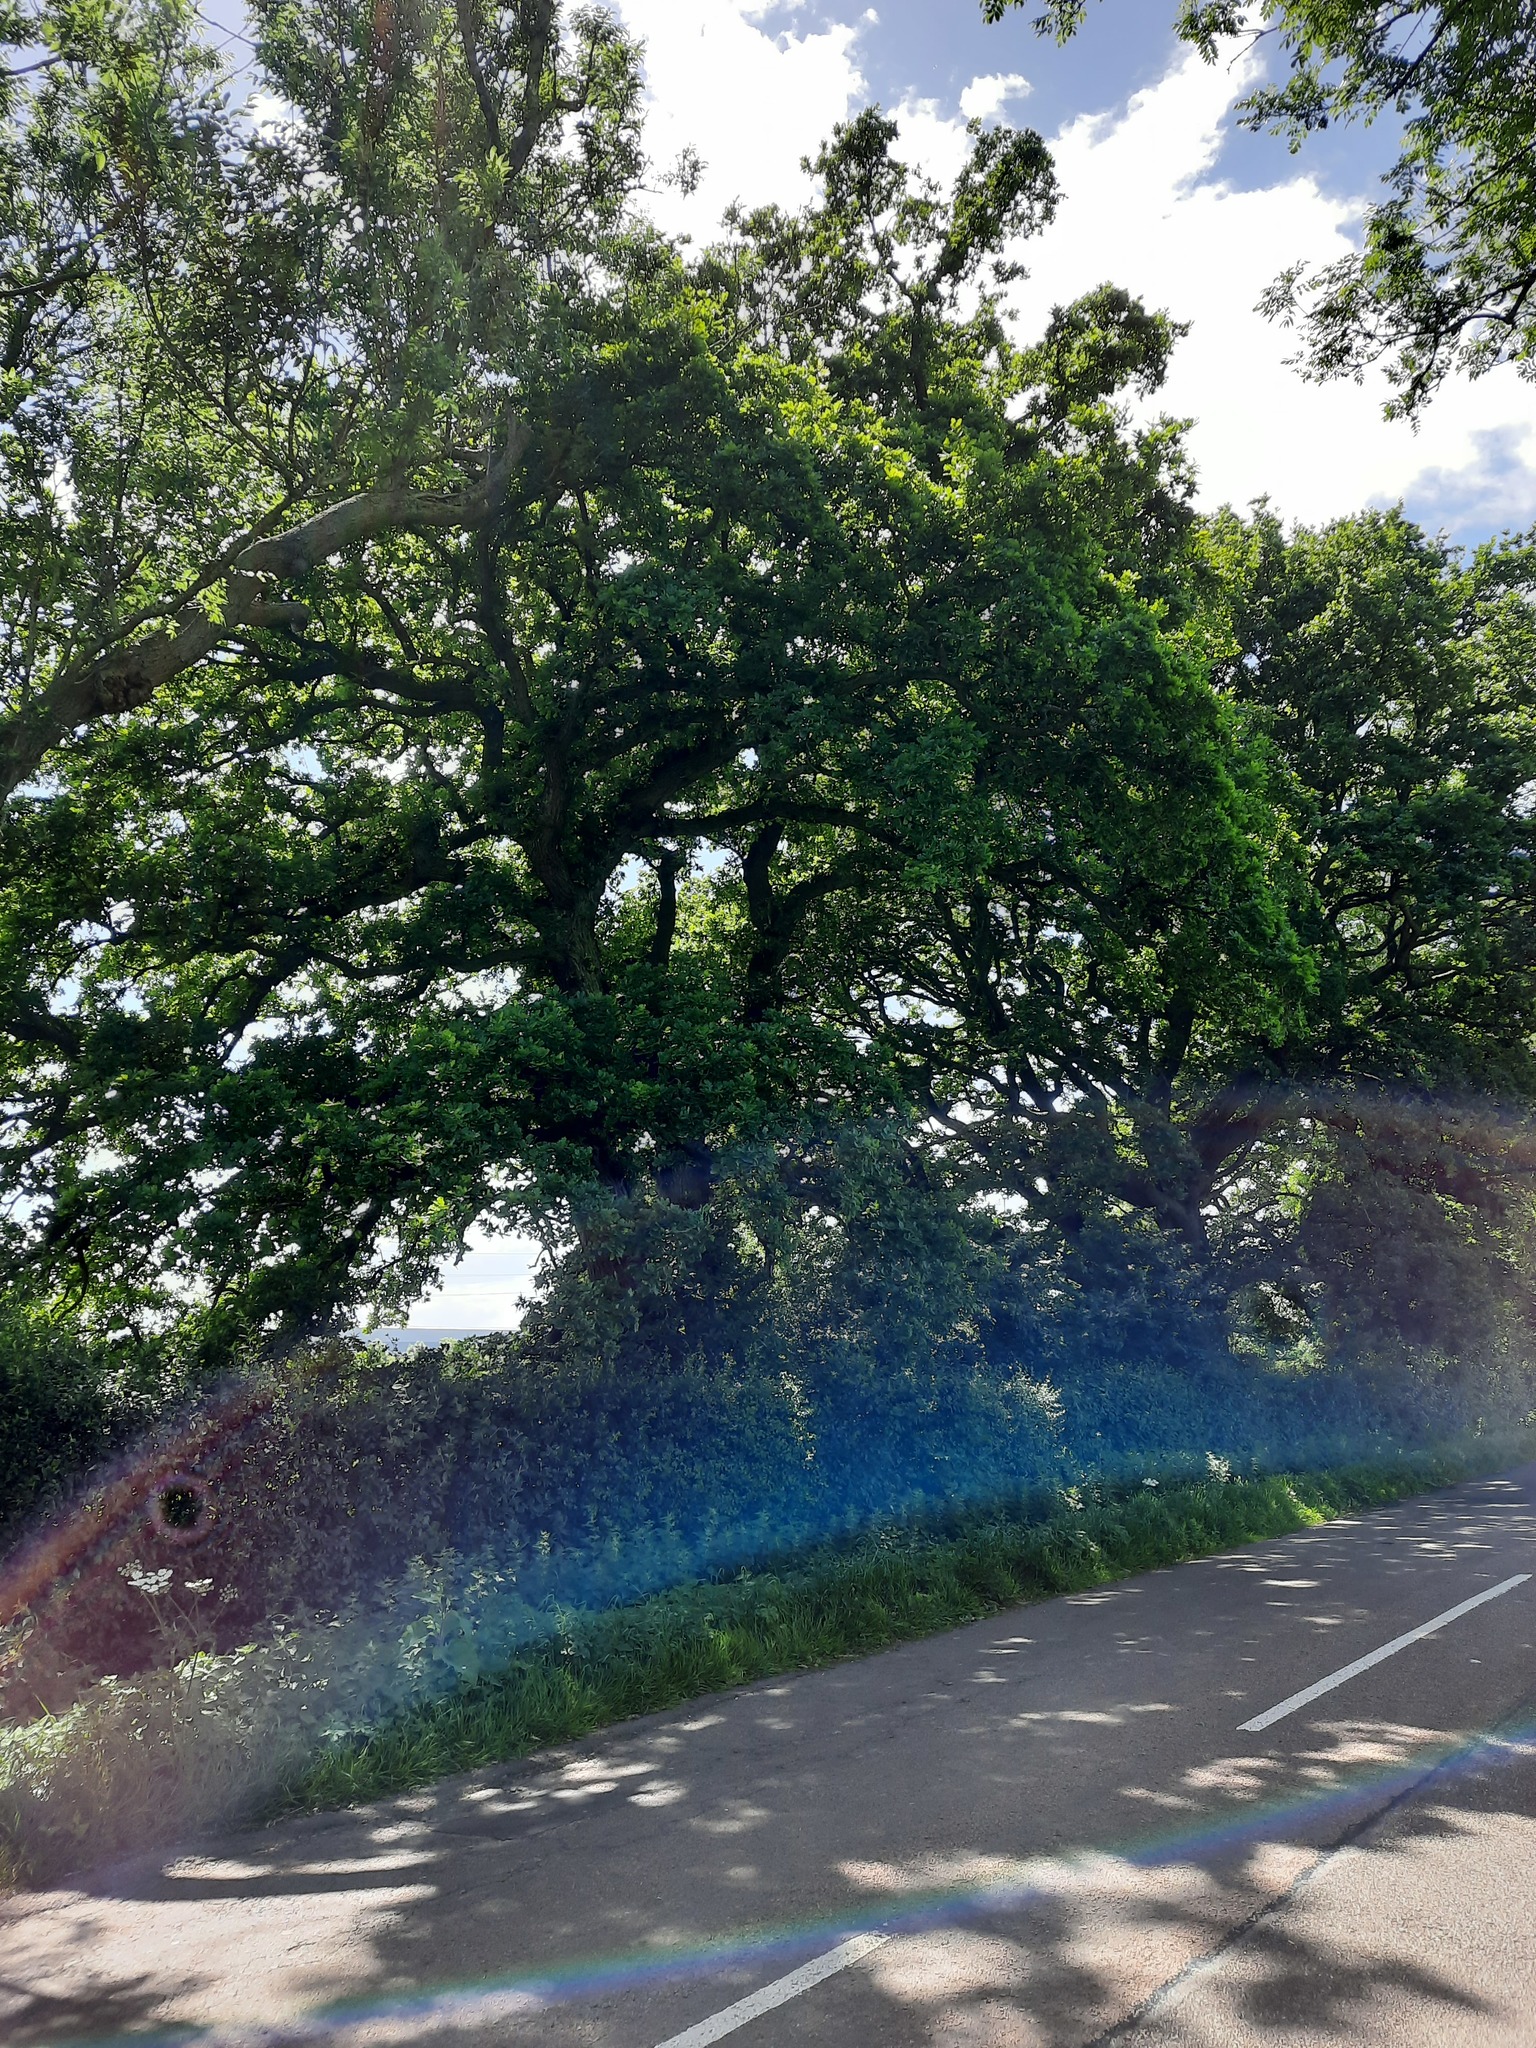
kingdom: Plantae
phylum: Tracheophyta
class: Magnoliopsida
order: Fagales
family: Fagaceae
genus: Quercus
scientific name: Quercus robur
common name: Pedunculate oak
